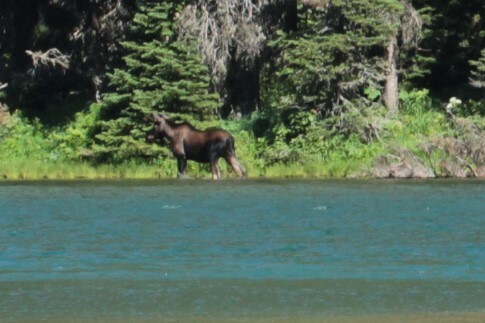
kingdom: Animalia
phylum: Chordata
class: Mammalia
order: Artiodactyla
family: Cervidae
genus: Alces
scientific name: Alces americanus
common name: Moose
